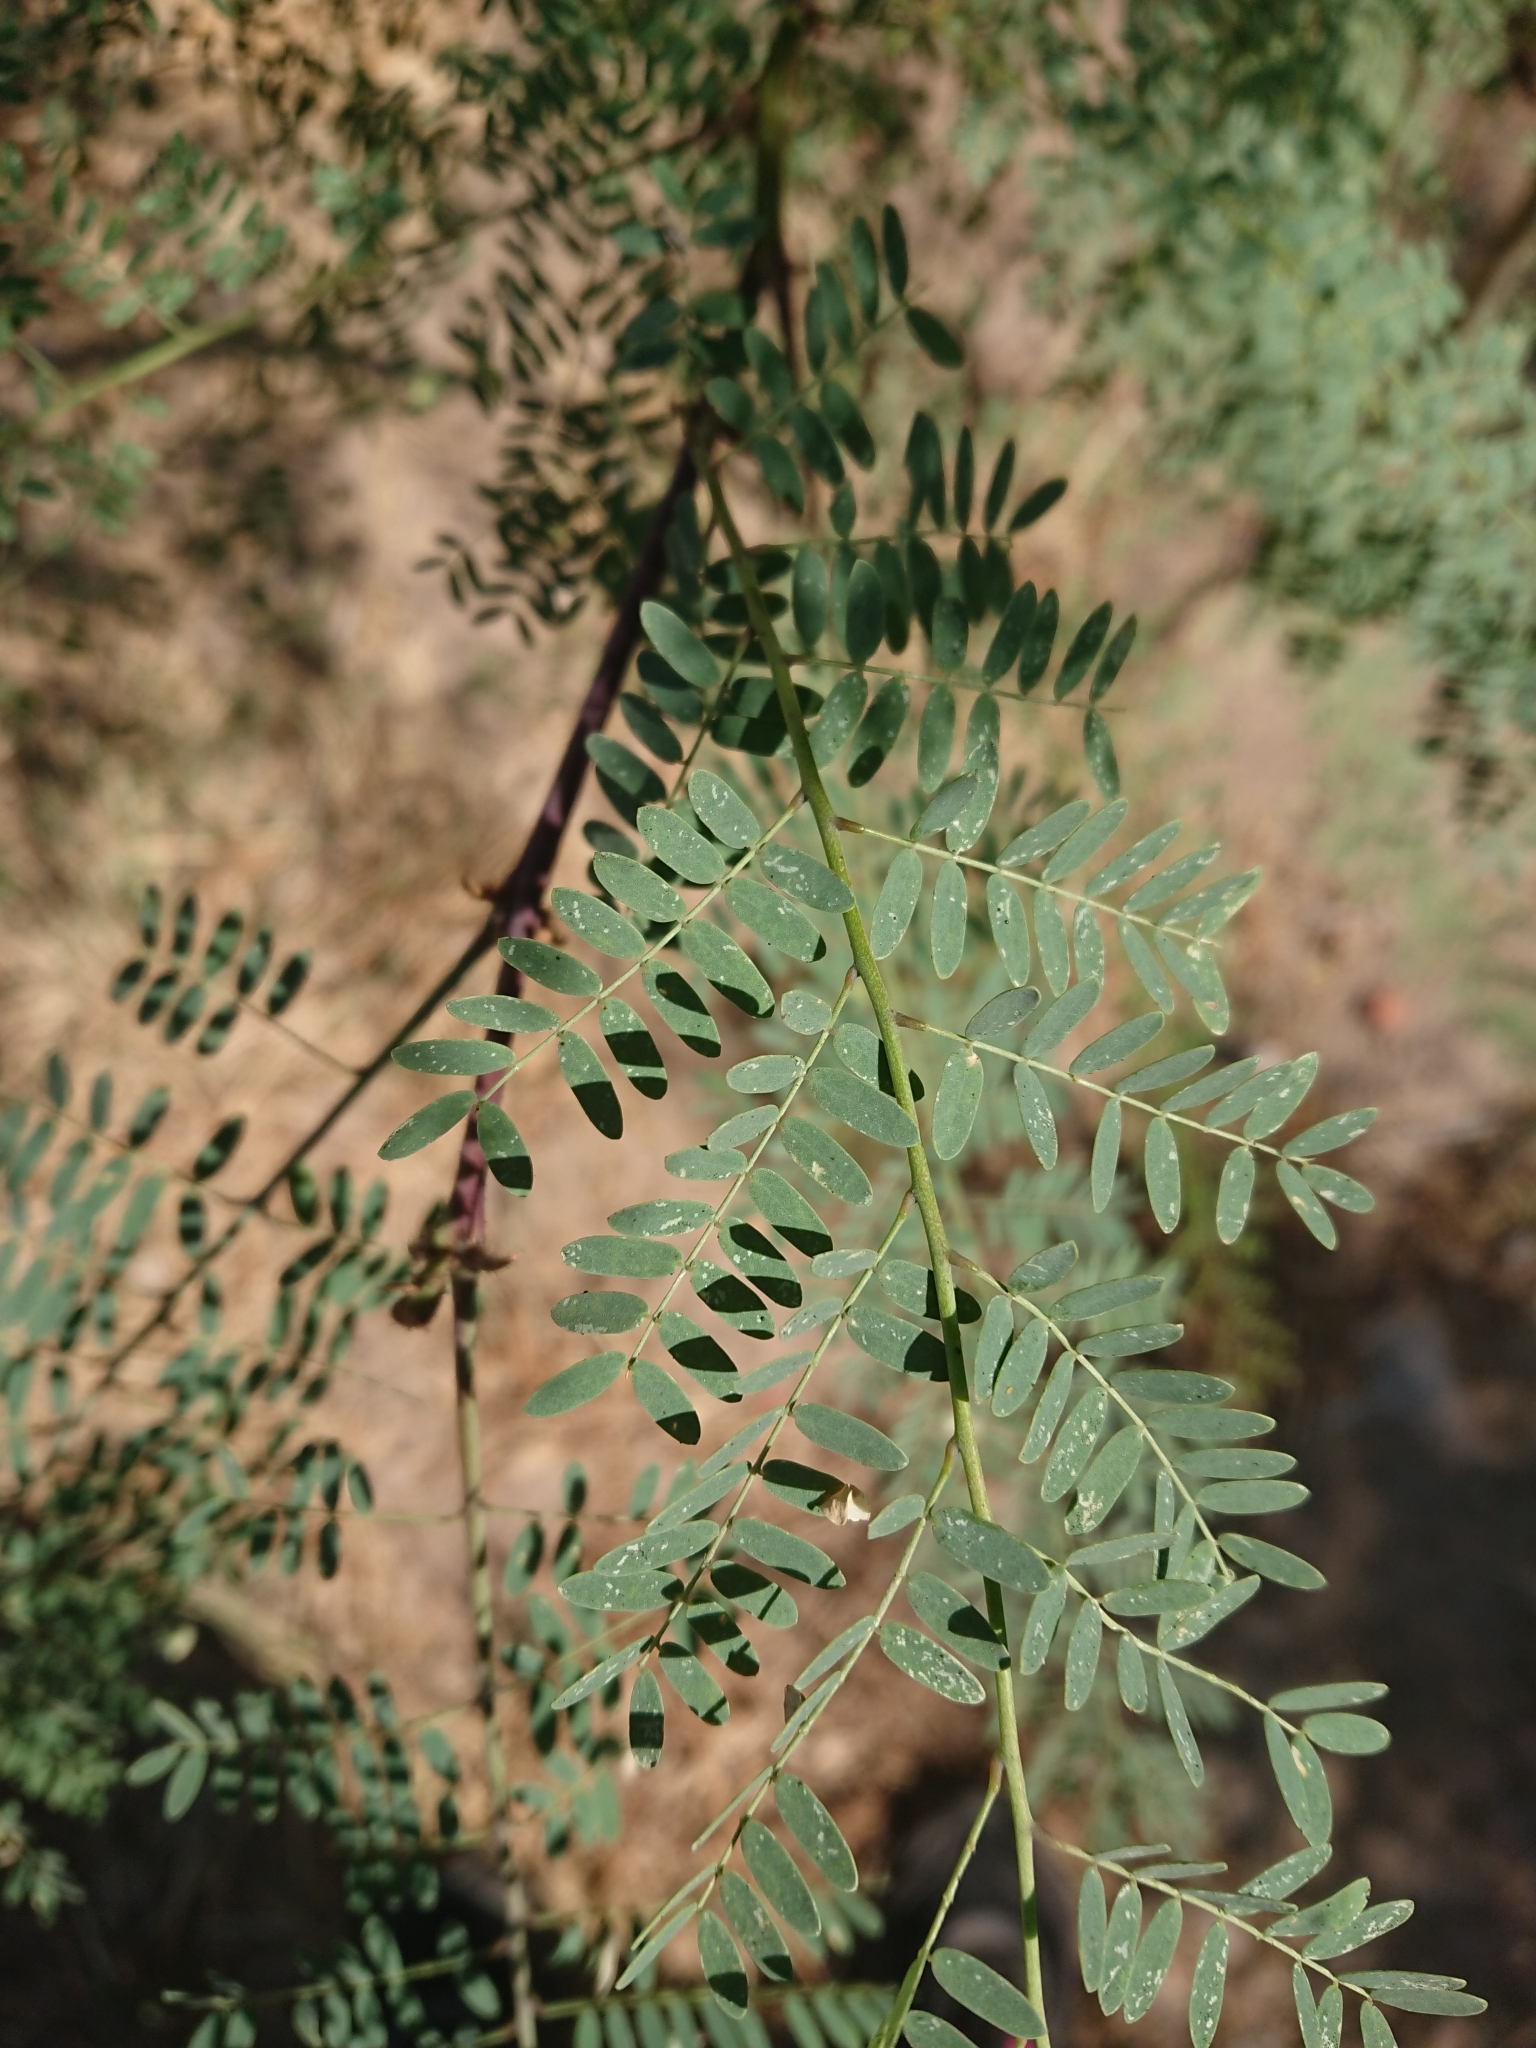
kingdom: Plantae
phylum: Tracheophyta
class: Magnoliopsida
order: Fabales
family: Fabaceae
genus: Erythrostemon
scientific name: Erythrostemon gilliesii
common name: Bird-of-paradise shrub
